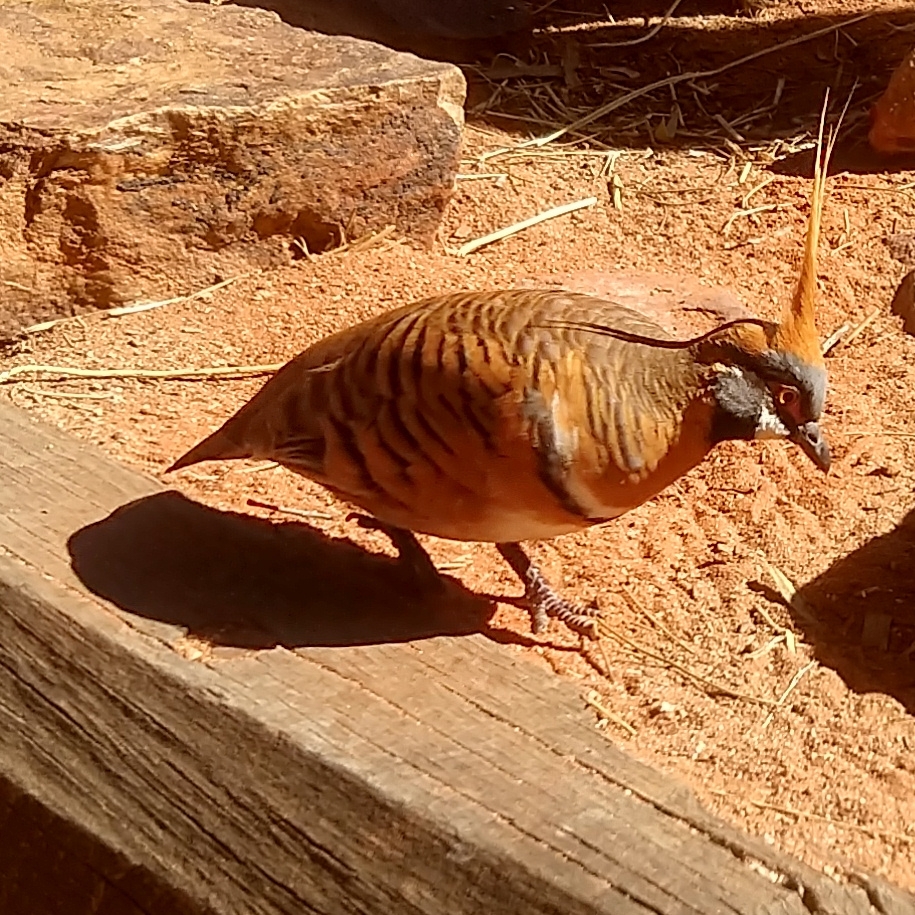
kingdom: Animalia
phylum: Chordata
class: Aves
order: Columbiformes
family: Columbidae
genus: Geophaps
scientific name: Geophaps plumifera
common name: Spinifex pigeon
